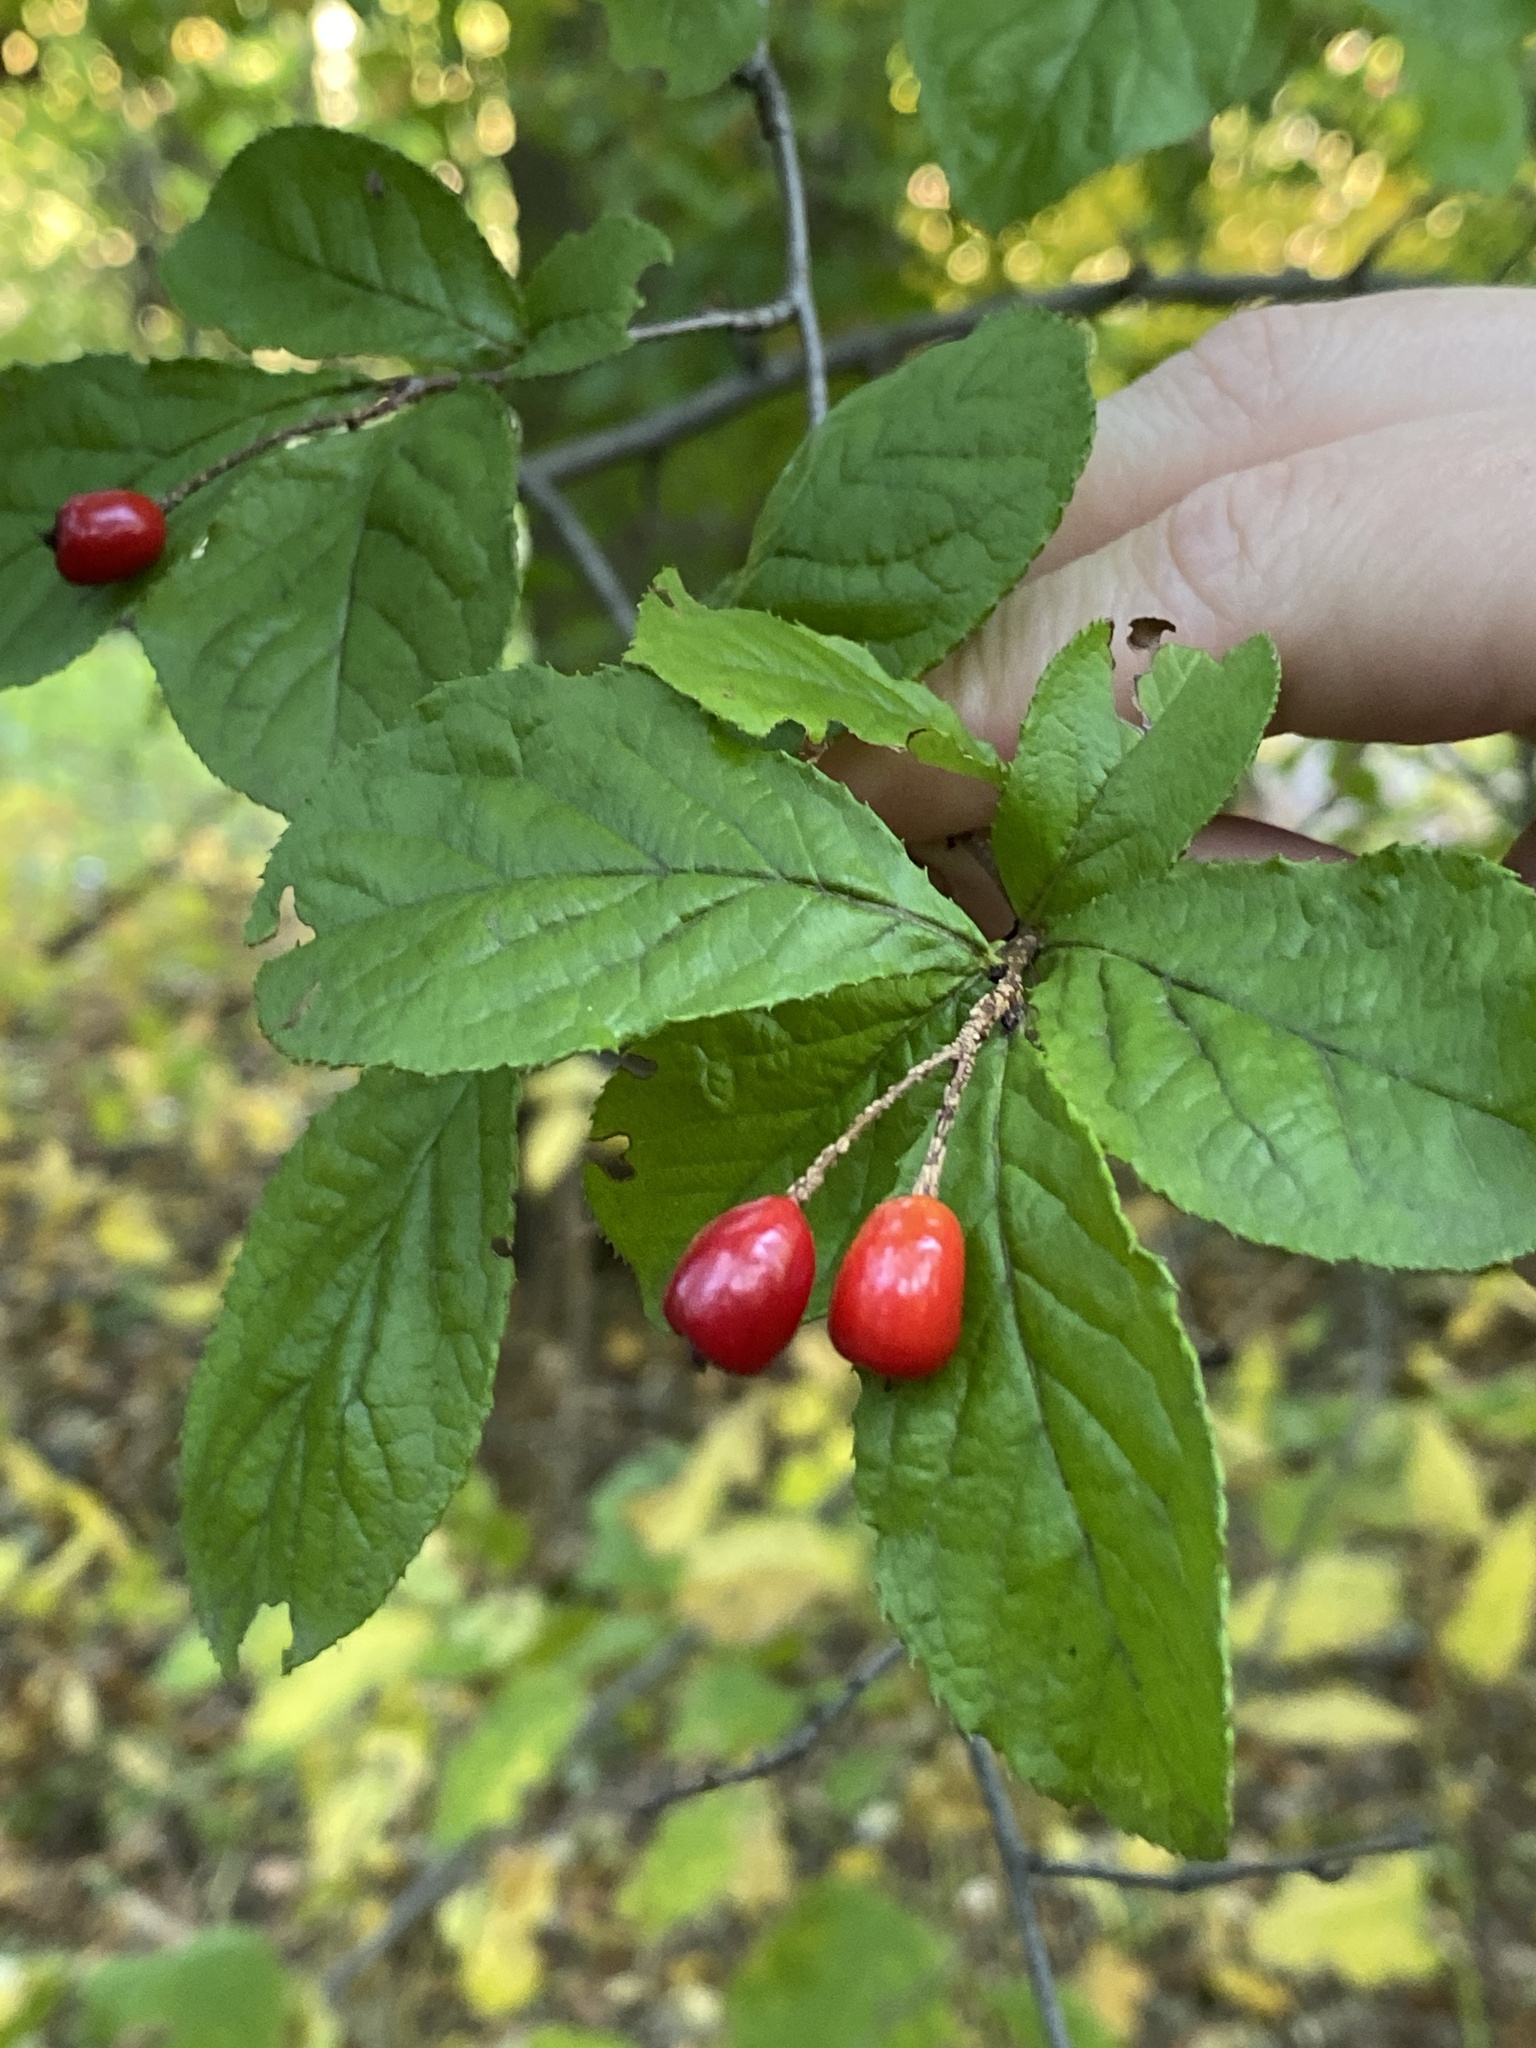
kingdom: Plantae
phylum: Tracheophyta
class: Magnoliopsida
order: Rosales
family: Rosaceae
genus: Pourthiaea
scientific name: Pourthiaea villosa
